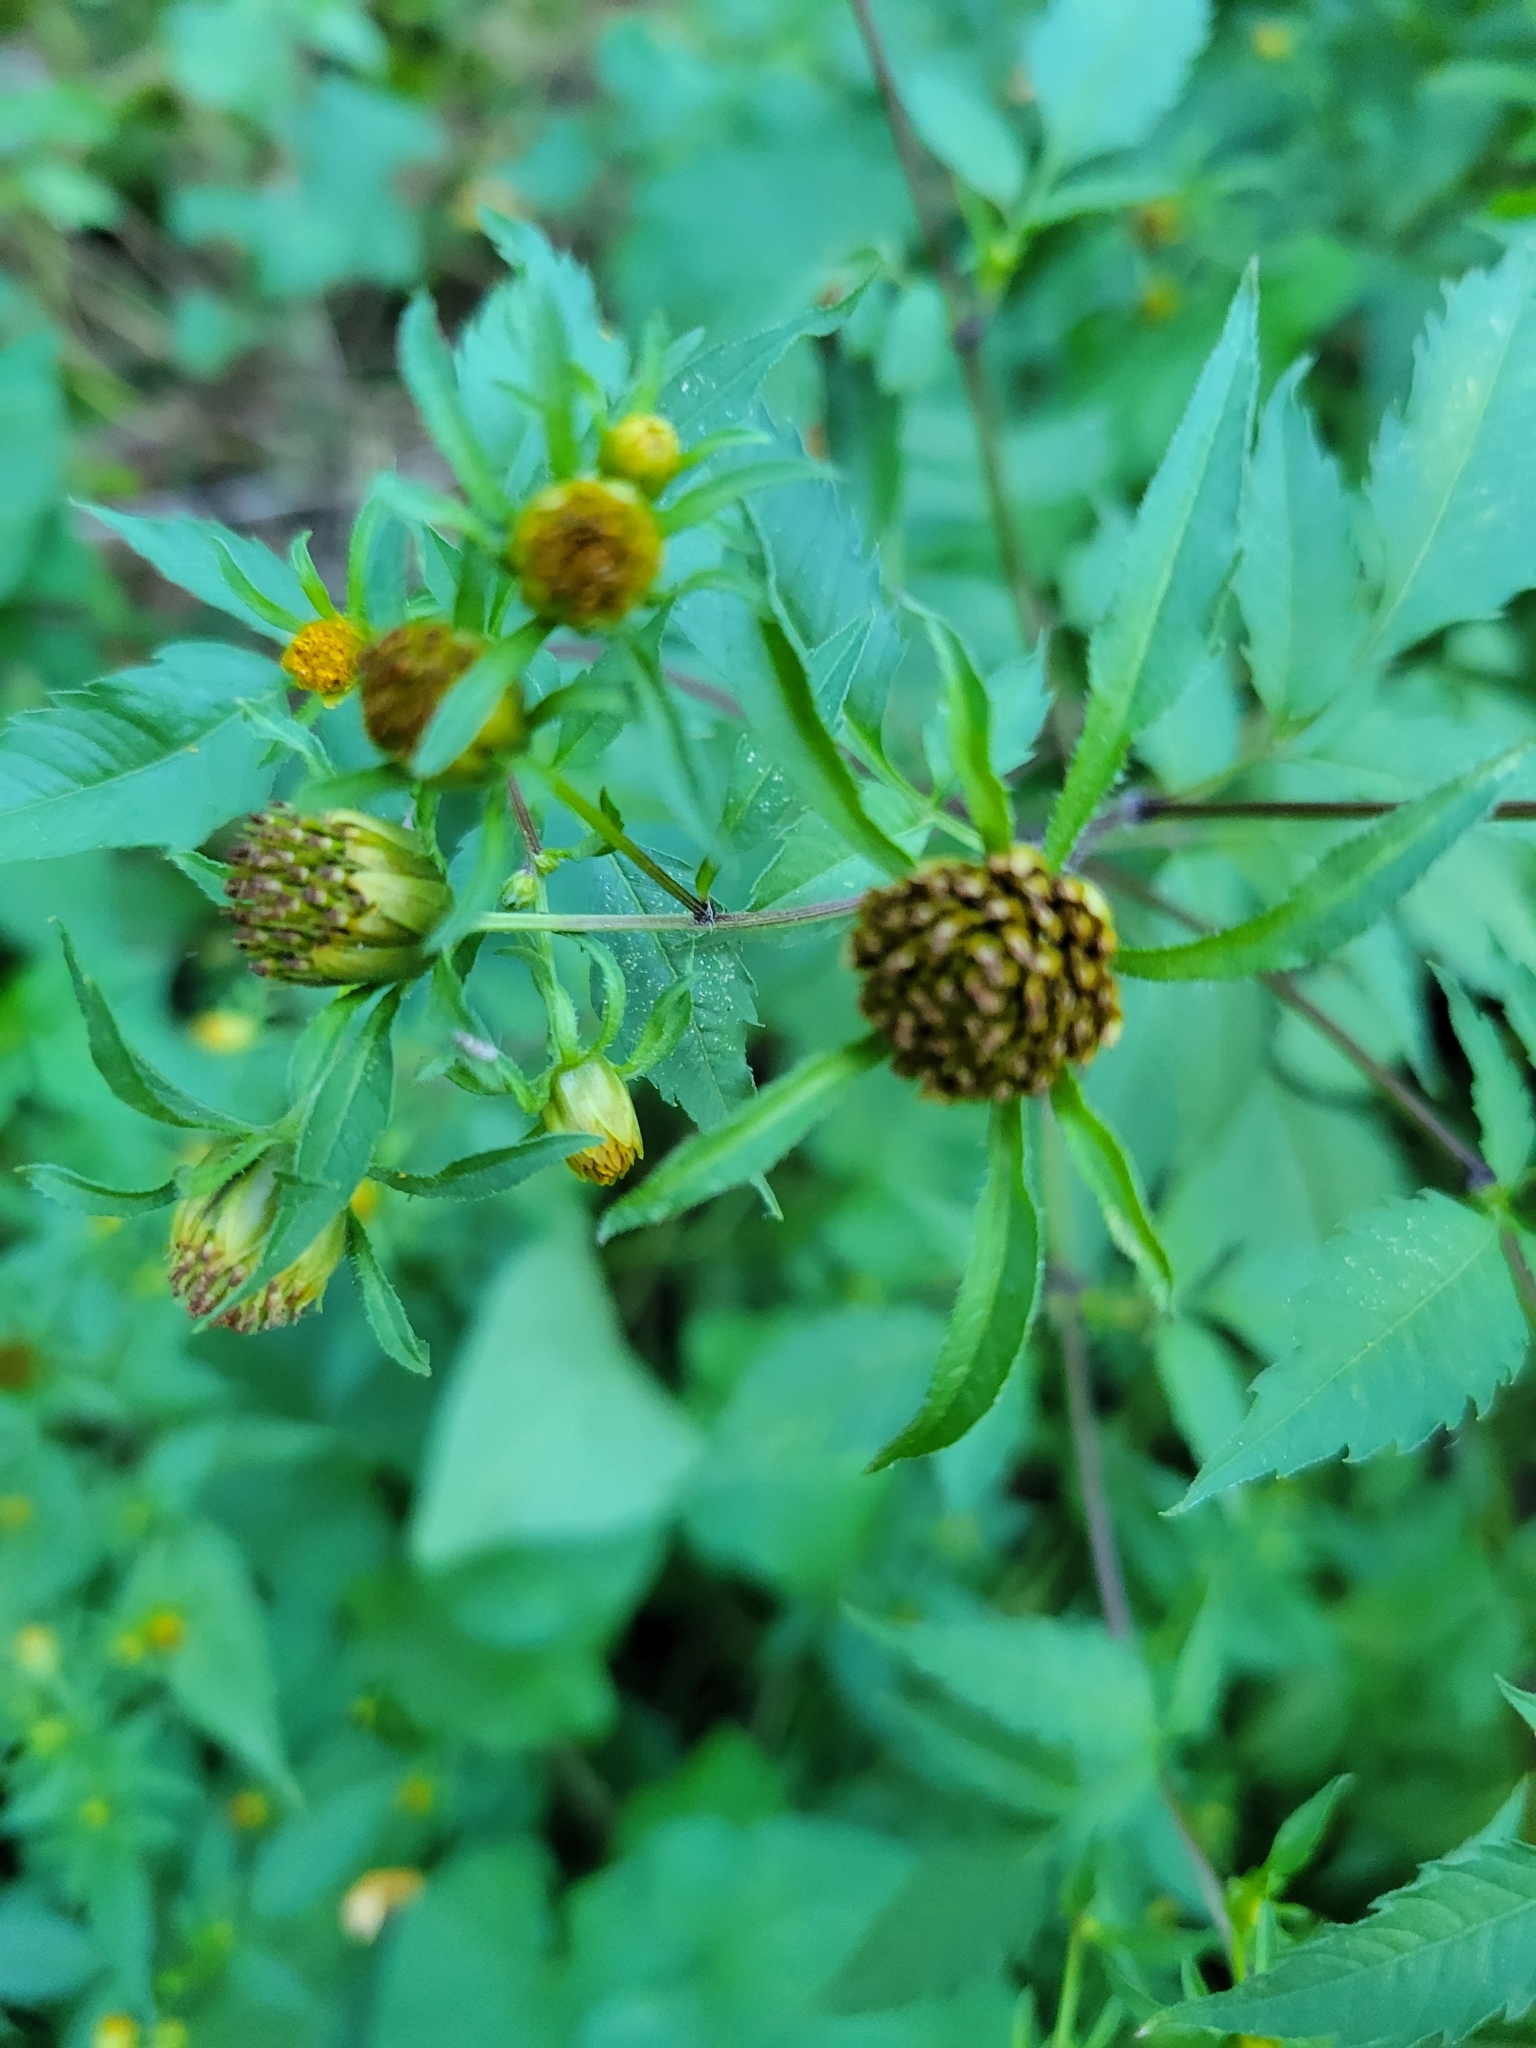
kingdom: Plantae
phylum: Tracheophyta
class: Magnoliopsida
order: Asterales
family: Asteraceae
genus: Bidens
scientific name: Bidens frondosa
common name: Beggarticks
